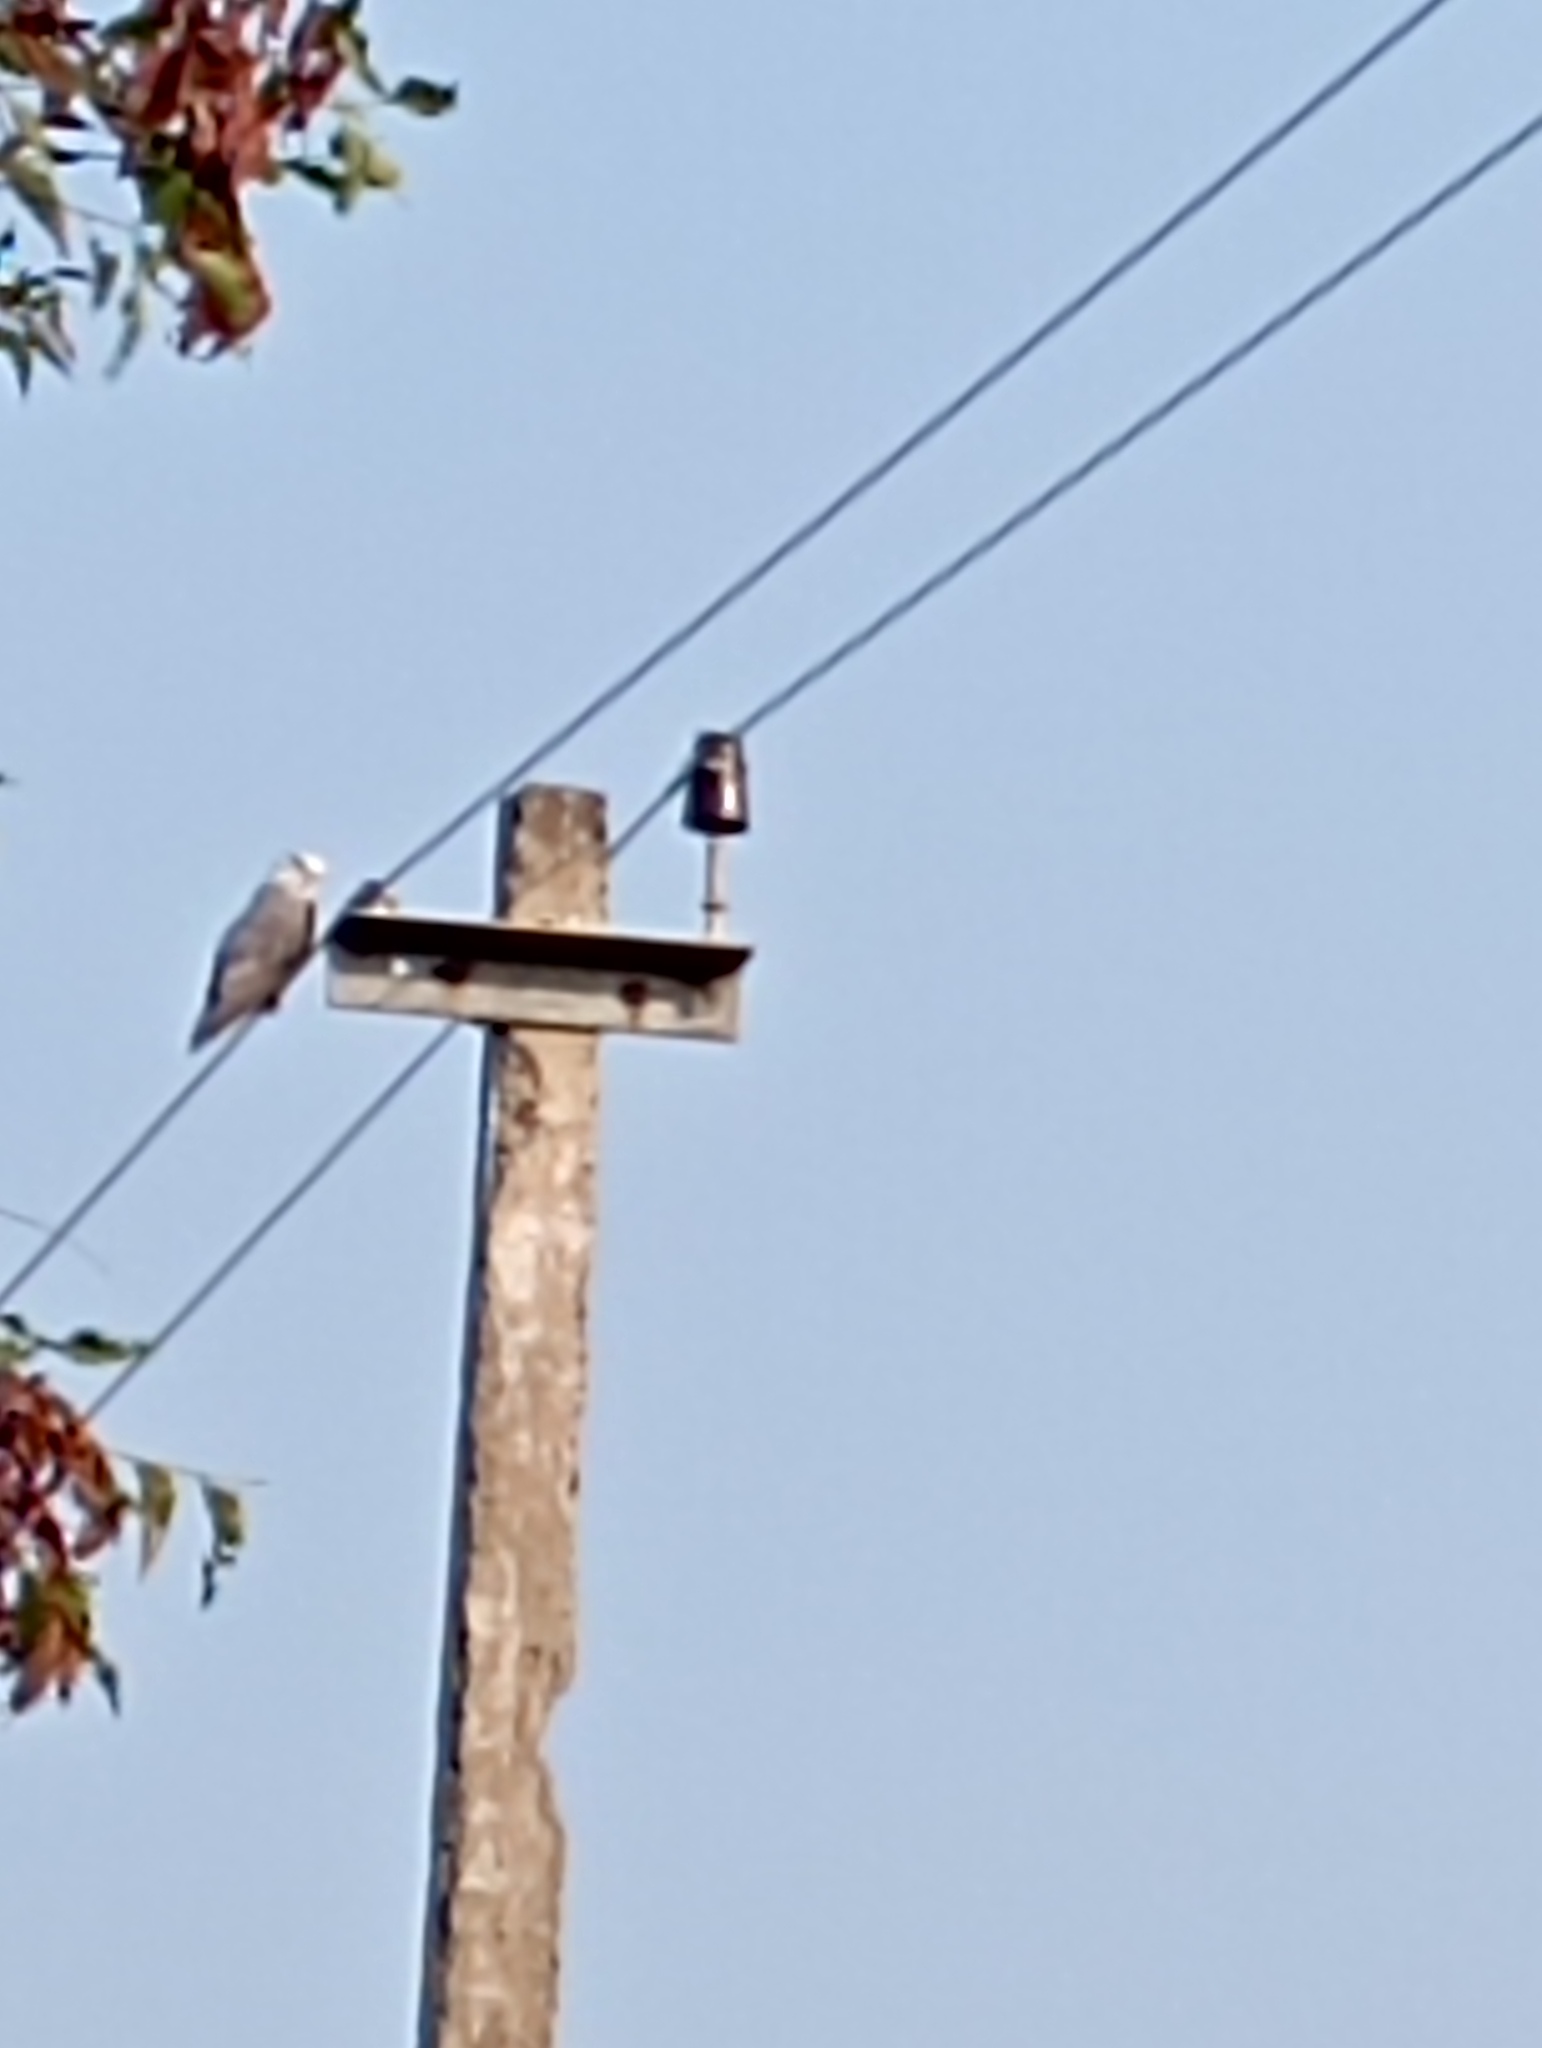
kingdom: Animalia
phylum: Chordata
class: Aves
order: Accipitriformes
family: Accipitridae
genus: Elanus
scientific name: Elanus caeruleus
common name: Black-winged kite
